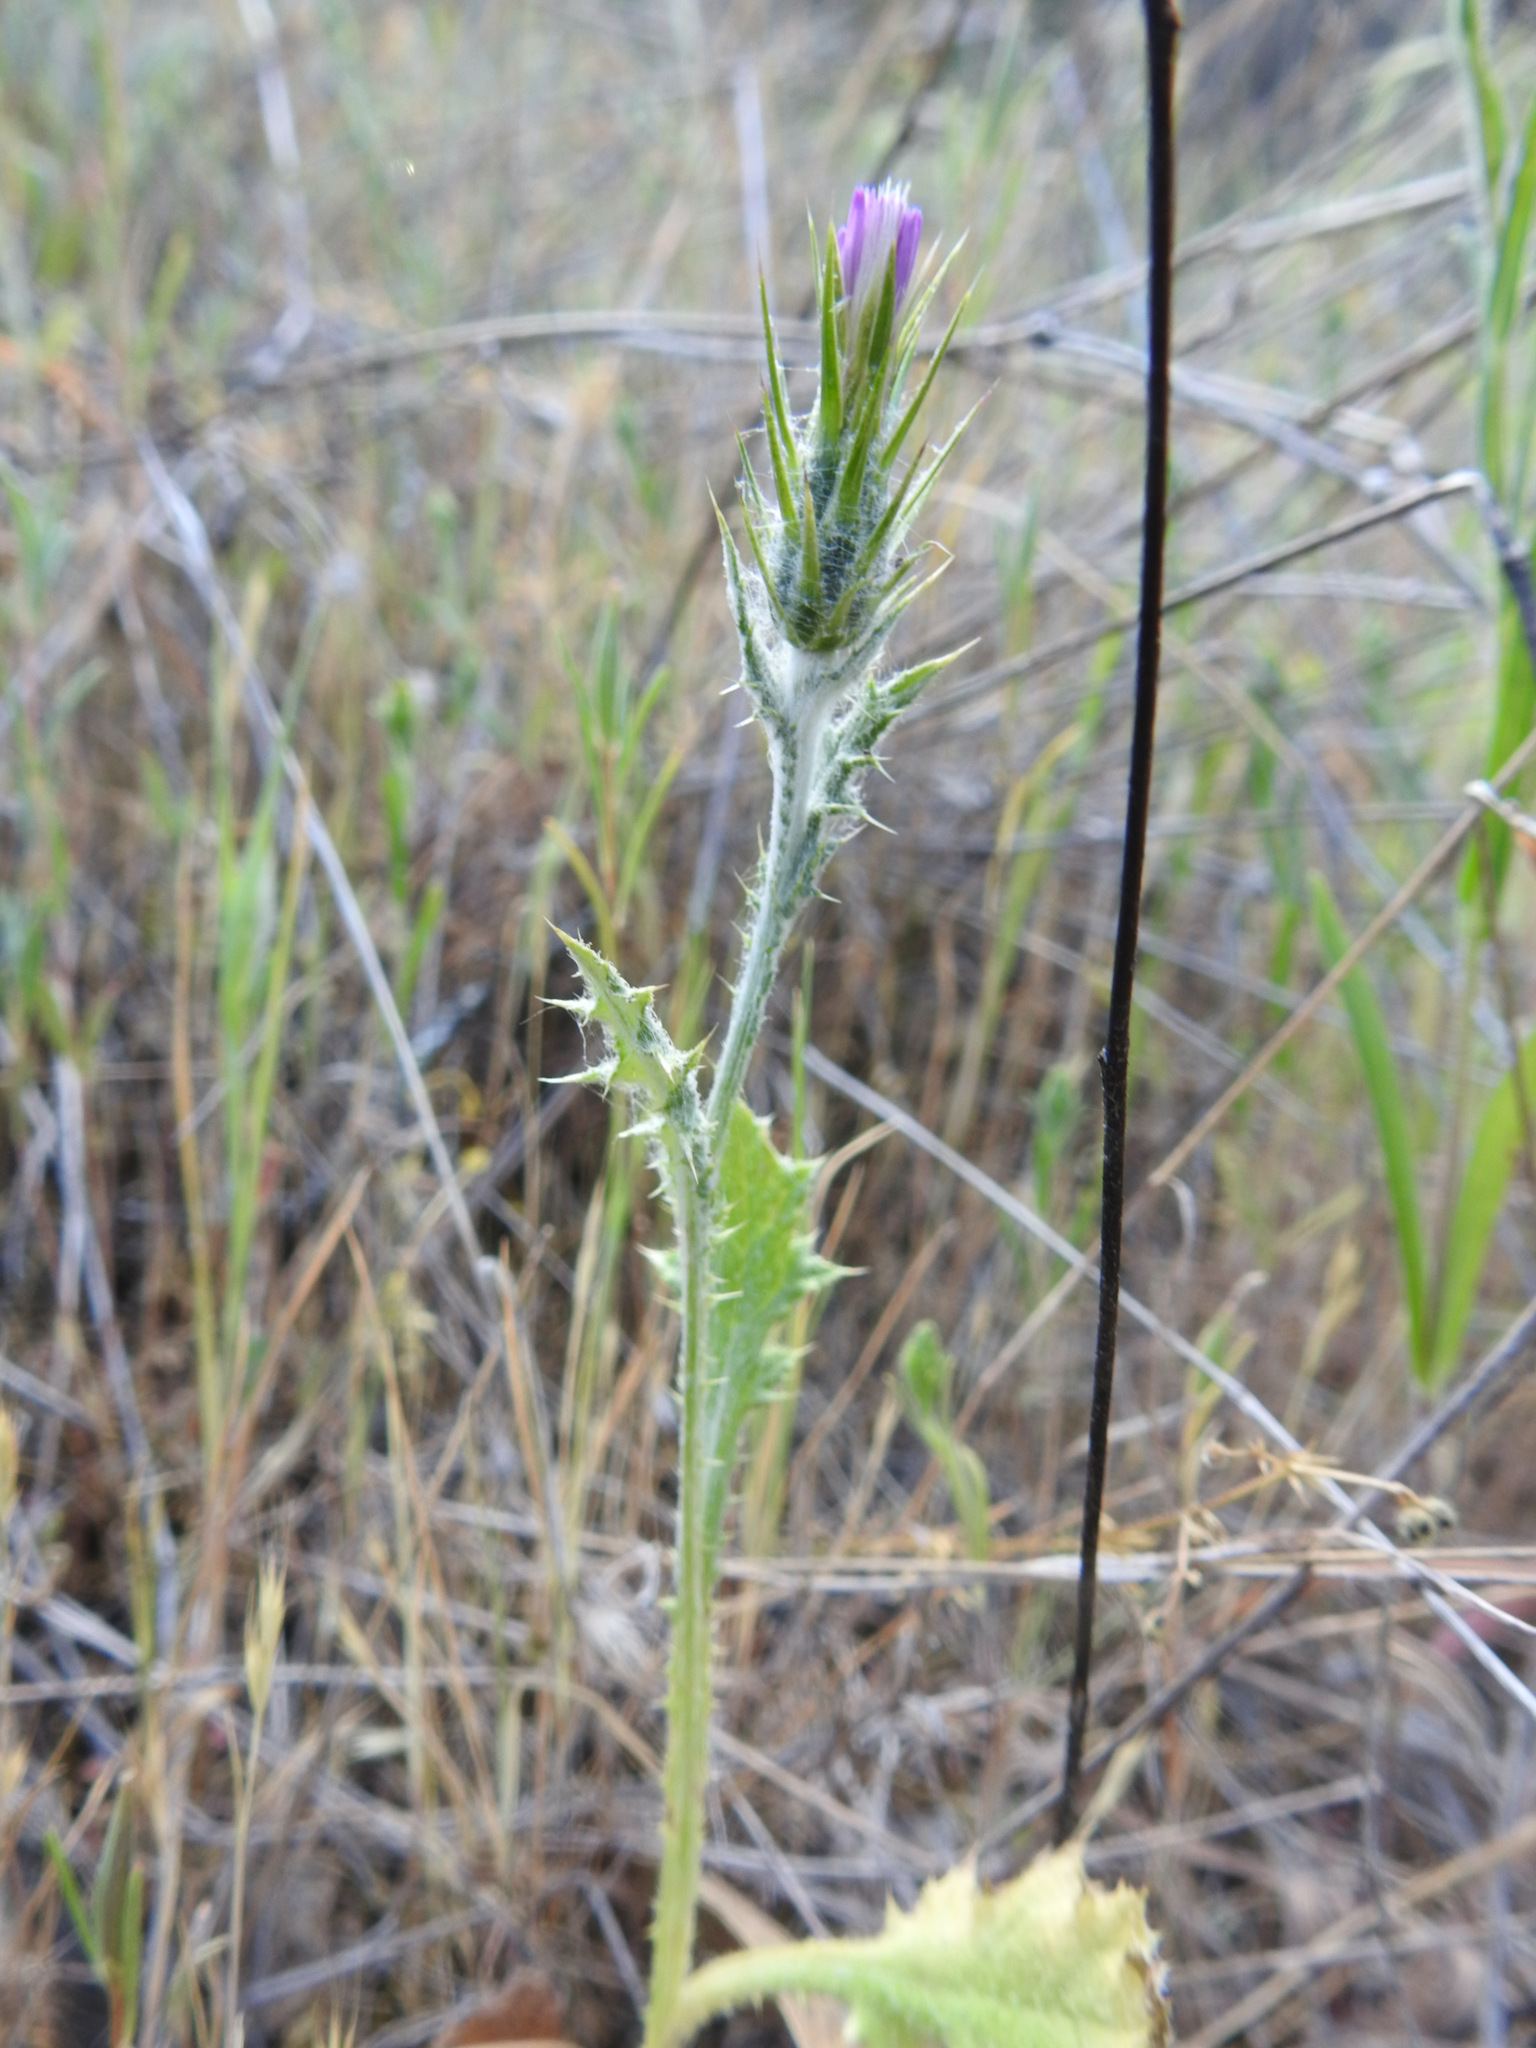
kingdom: Plantae
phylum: Tracheophyta
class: Magnoliopsida
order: Asterales
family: Asteraceae
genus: Carduus
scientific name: Carduus pycnocephalus
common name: Plymouth thistle
